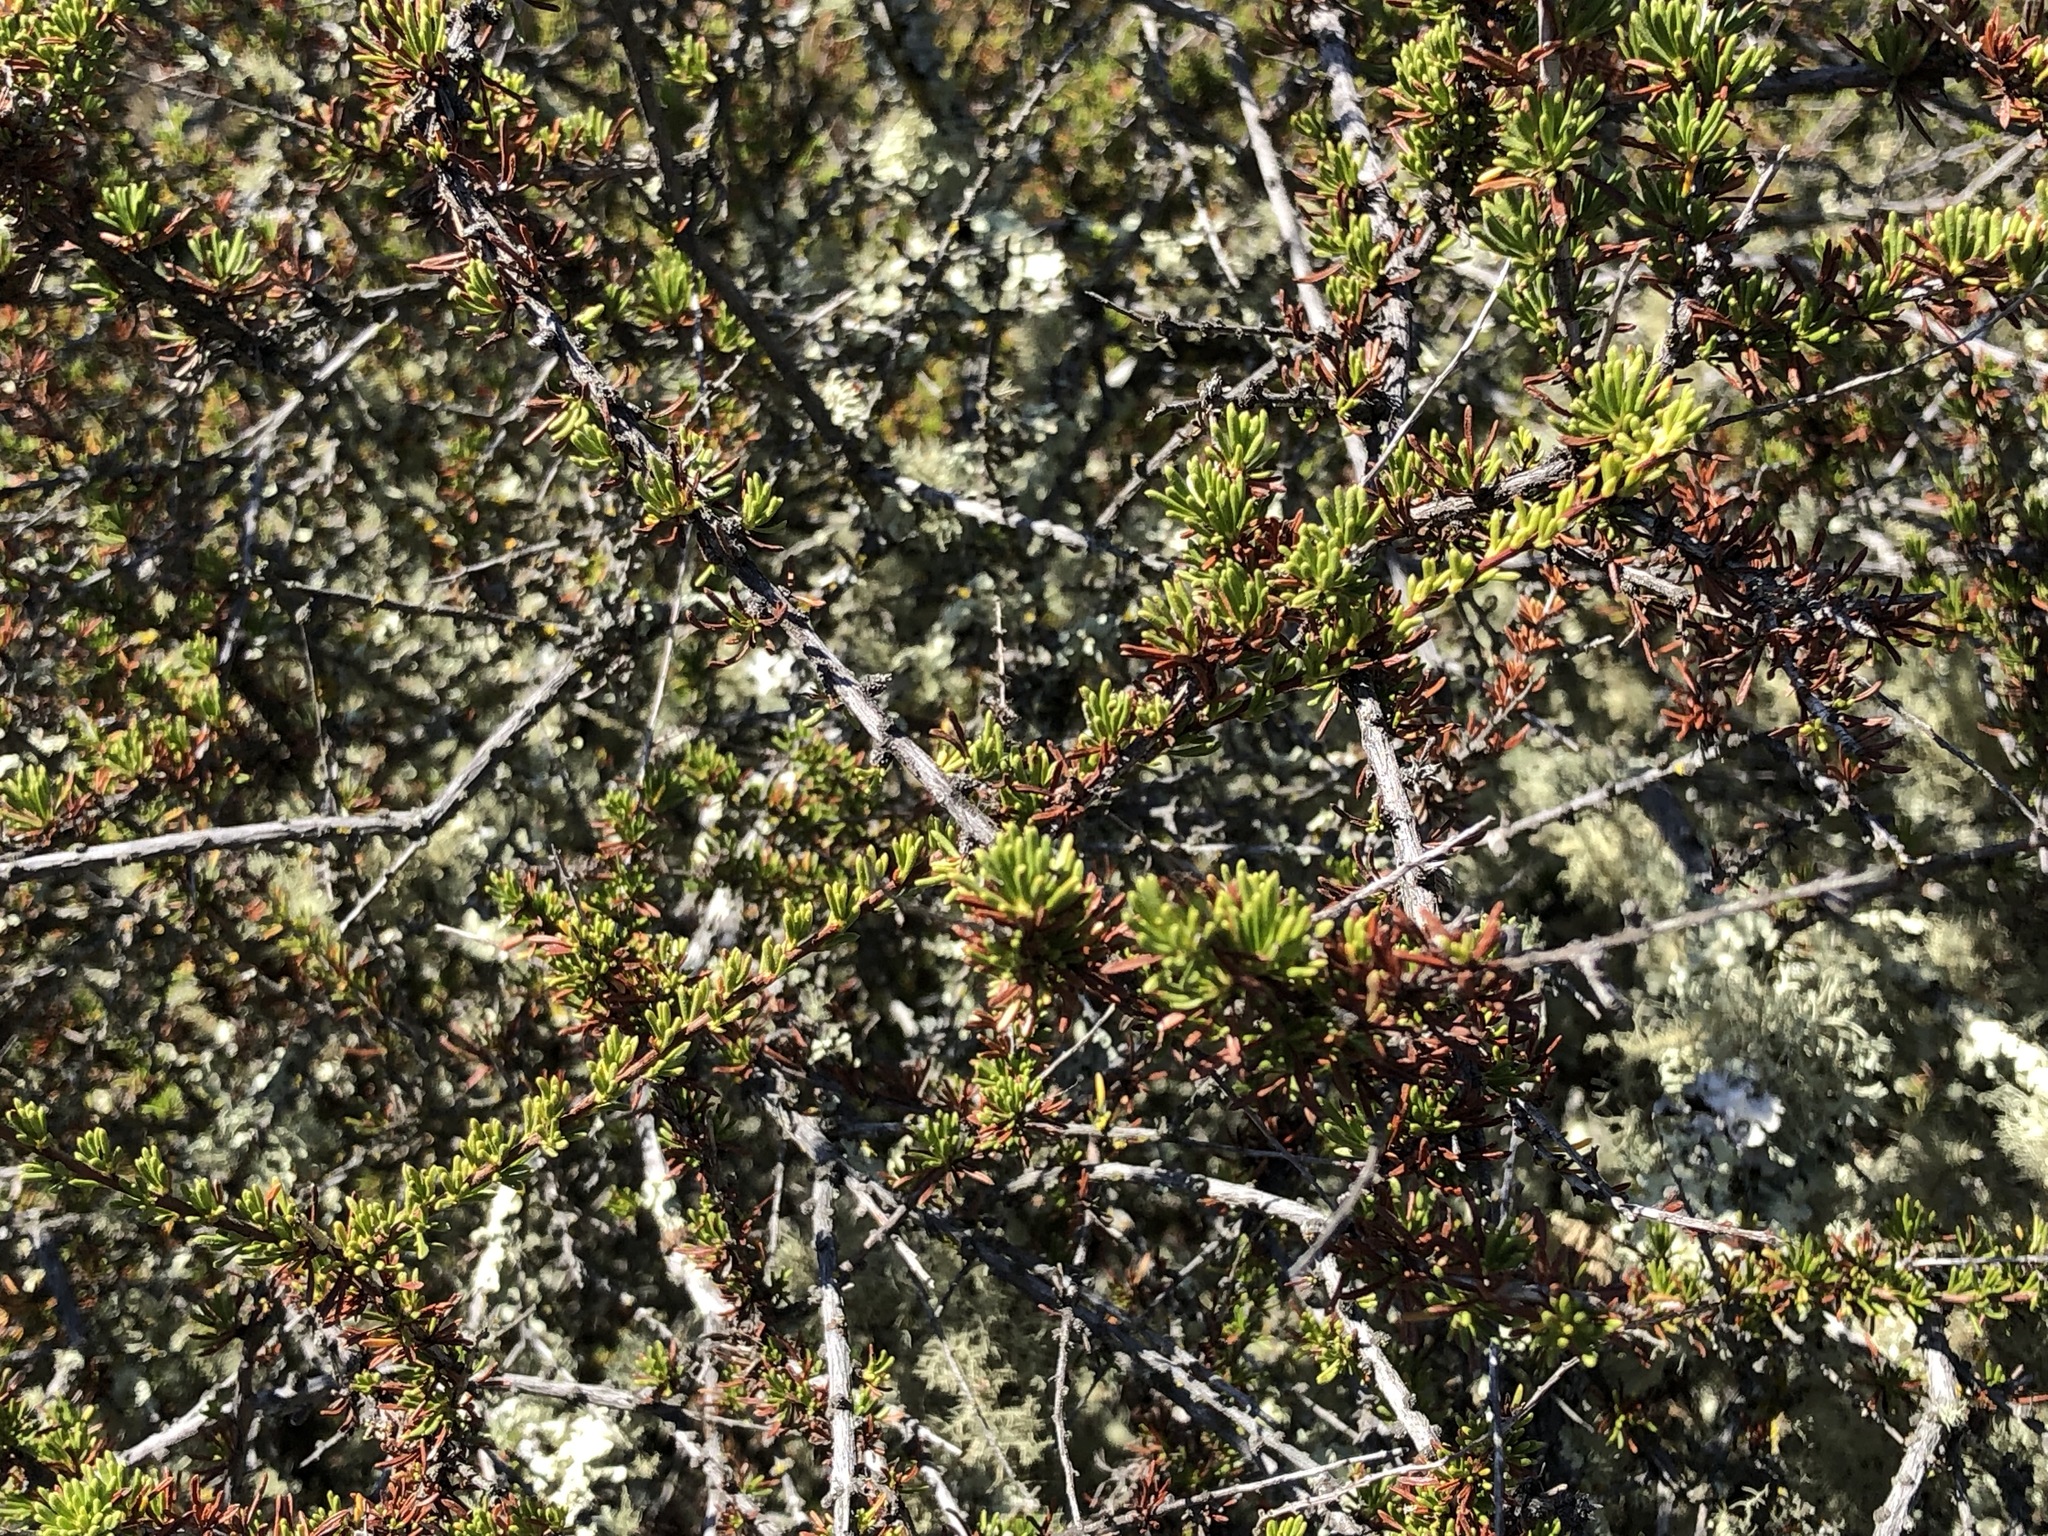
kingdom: Plantae
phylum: Tracheophyta
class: Magnoliopsida
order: Rosales
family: Rosaceae
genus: Adenostoma
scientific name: Adenostoma fasciculatum
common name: Chamise
